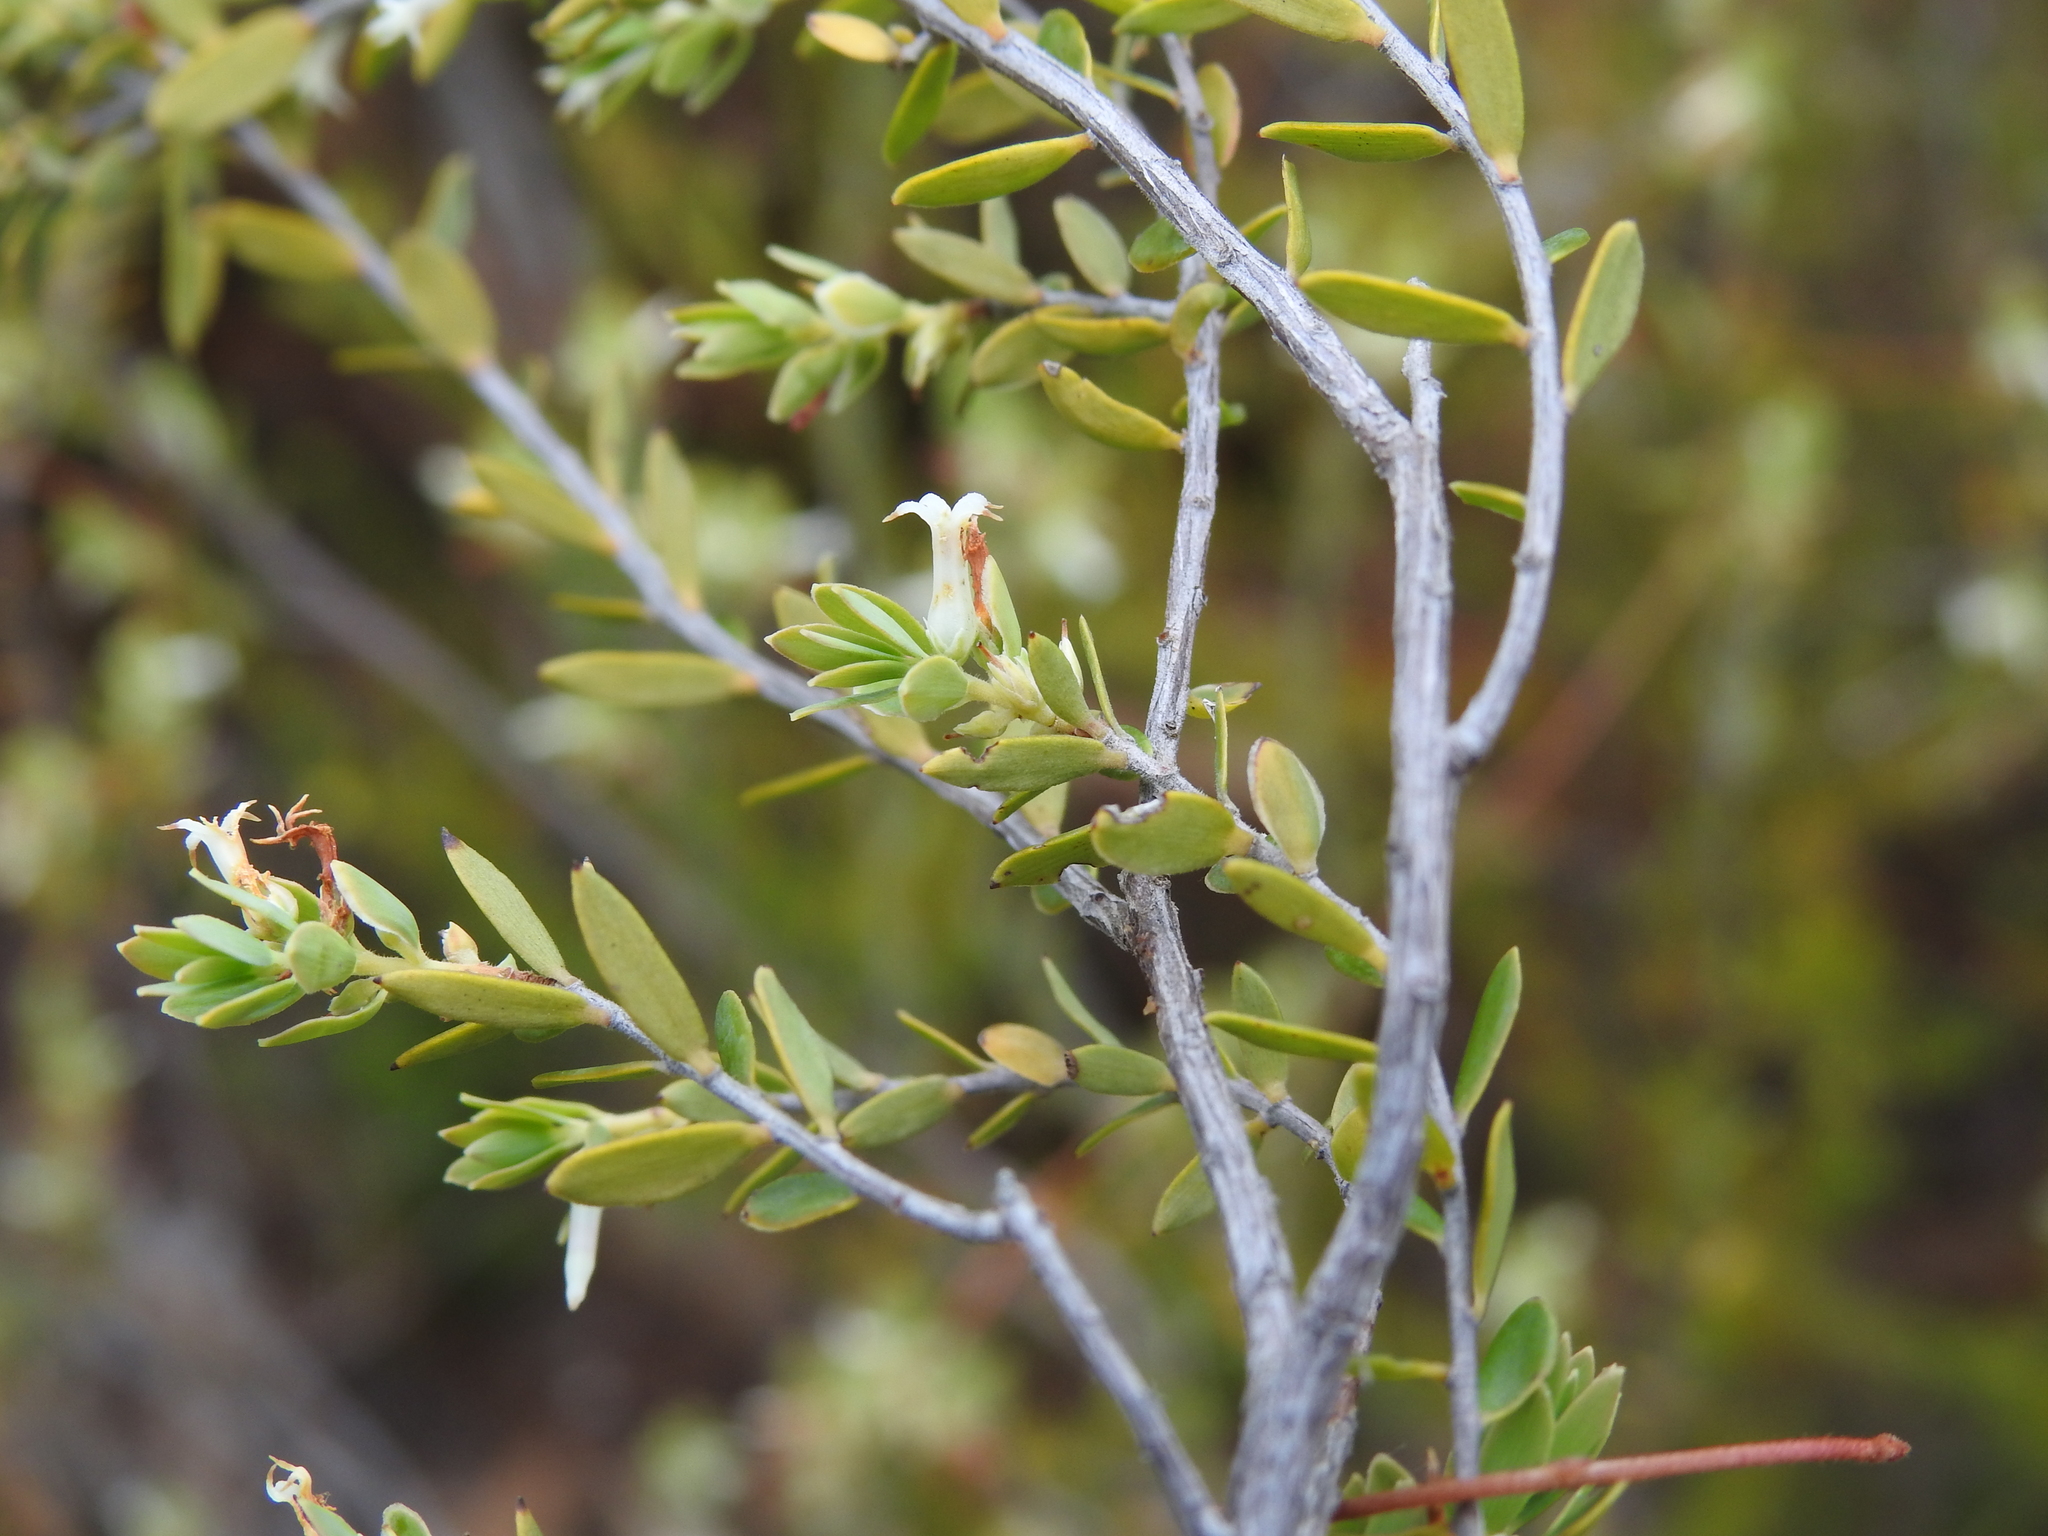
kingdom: Plantae
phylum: Tracheophyta
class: Magnoliopsida
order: Ericales
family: Ericaceae
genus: Brachyloma
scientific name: Brachyloma daphnoides
